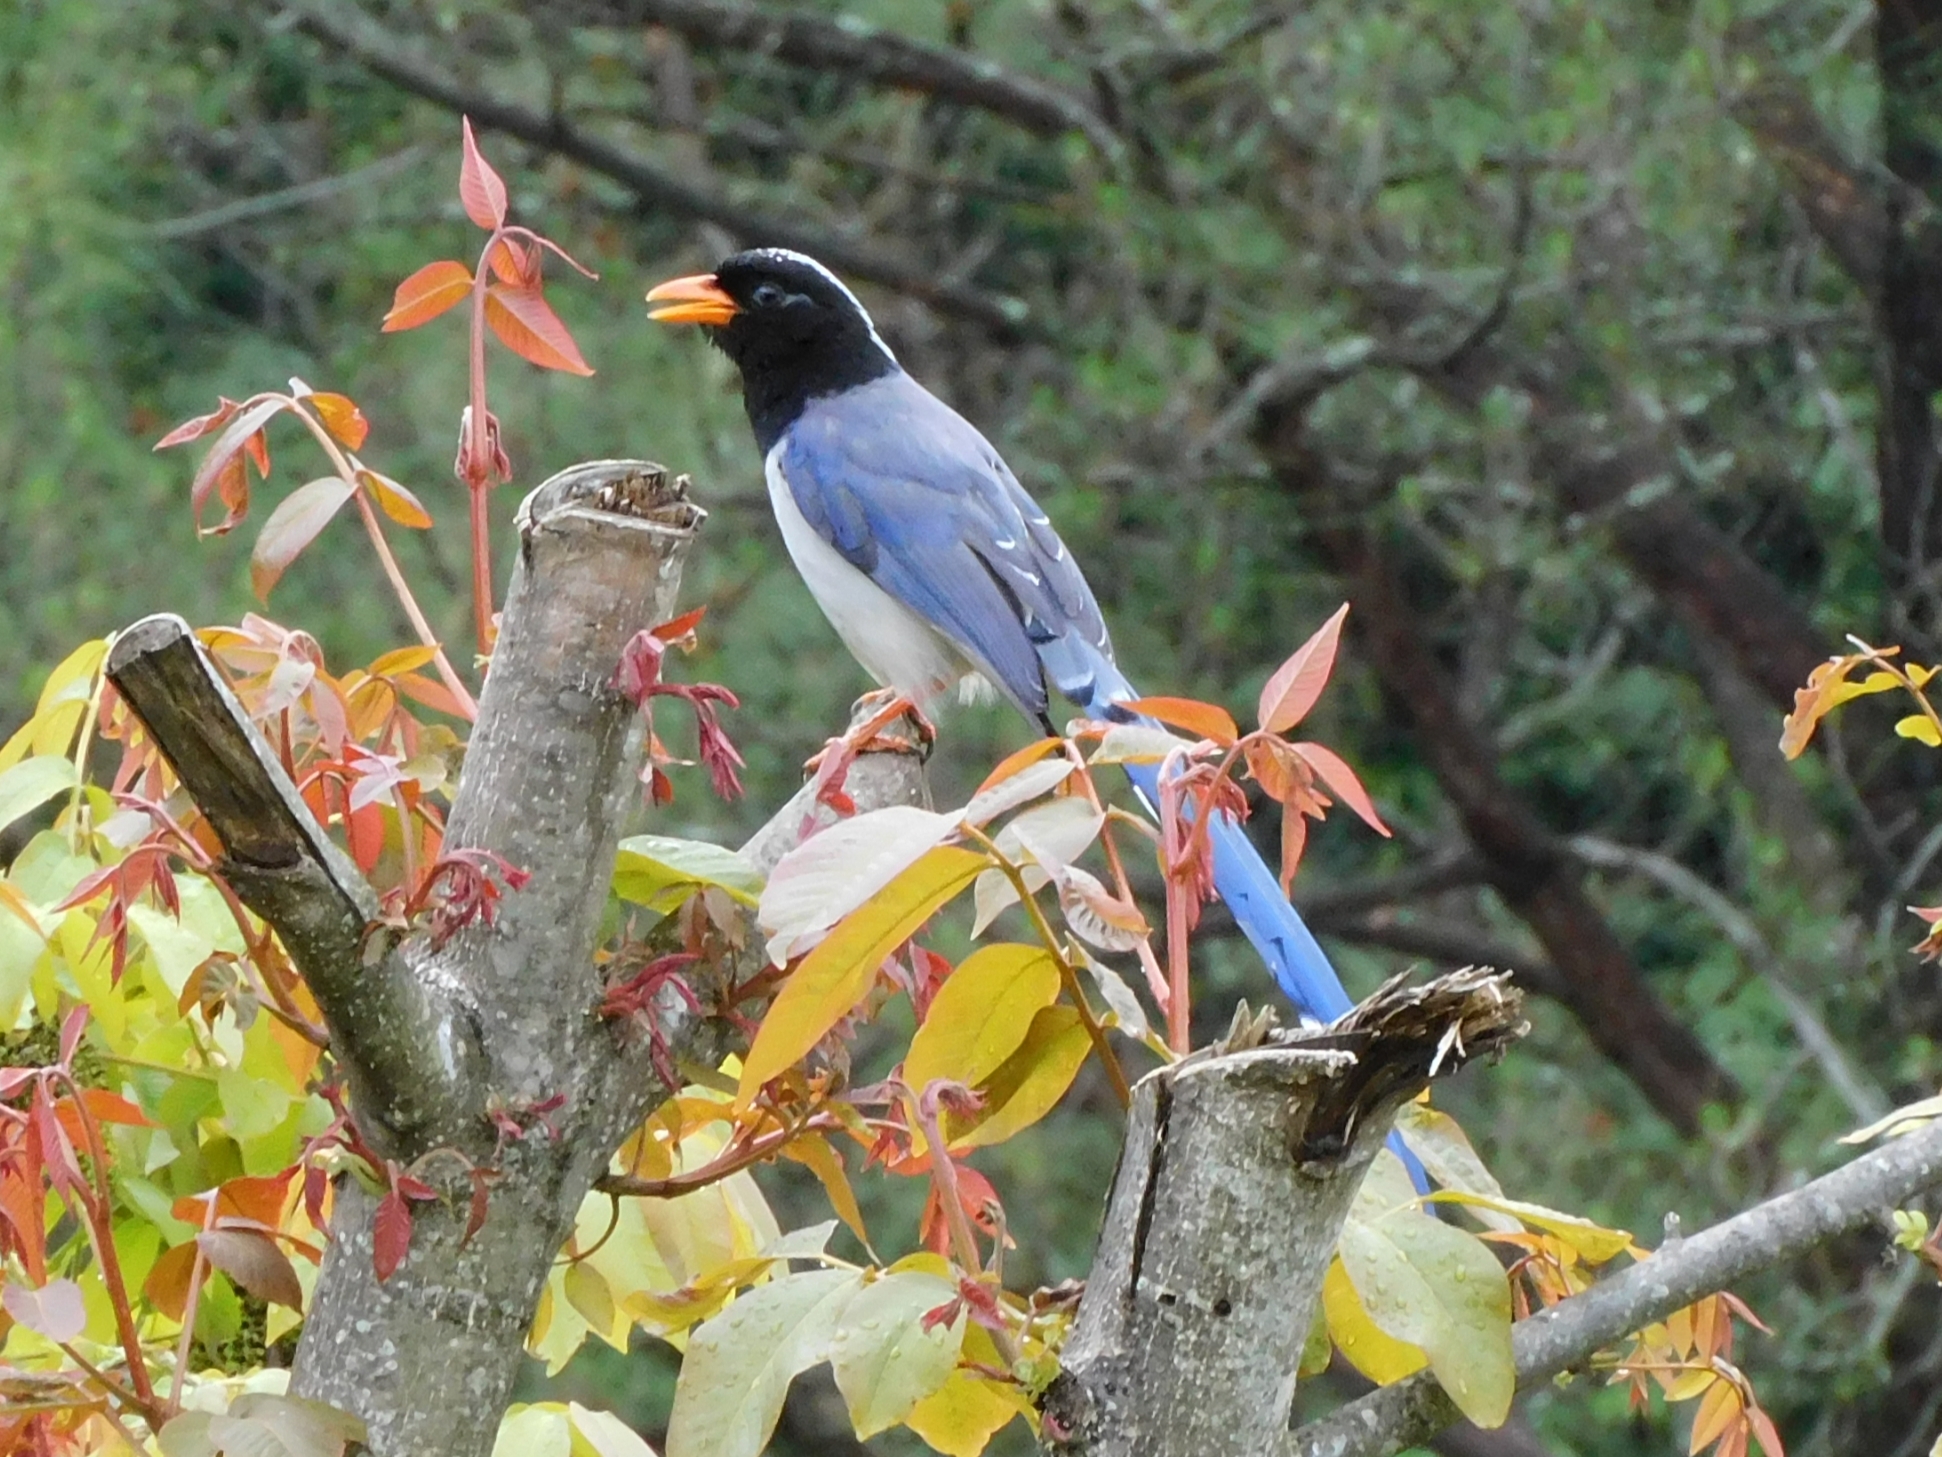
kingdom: Animalia
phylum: Chordata
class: Aves
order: Passeriformes
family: Corvidae
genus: Urocissa
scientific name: Urocissa erythroryncha
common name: Red-billed blue magpie
